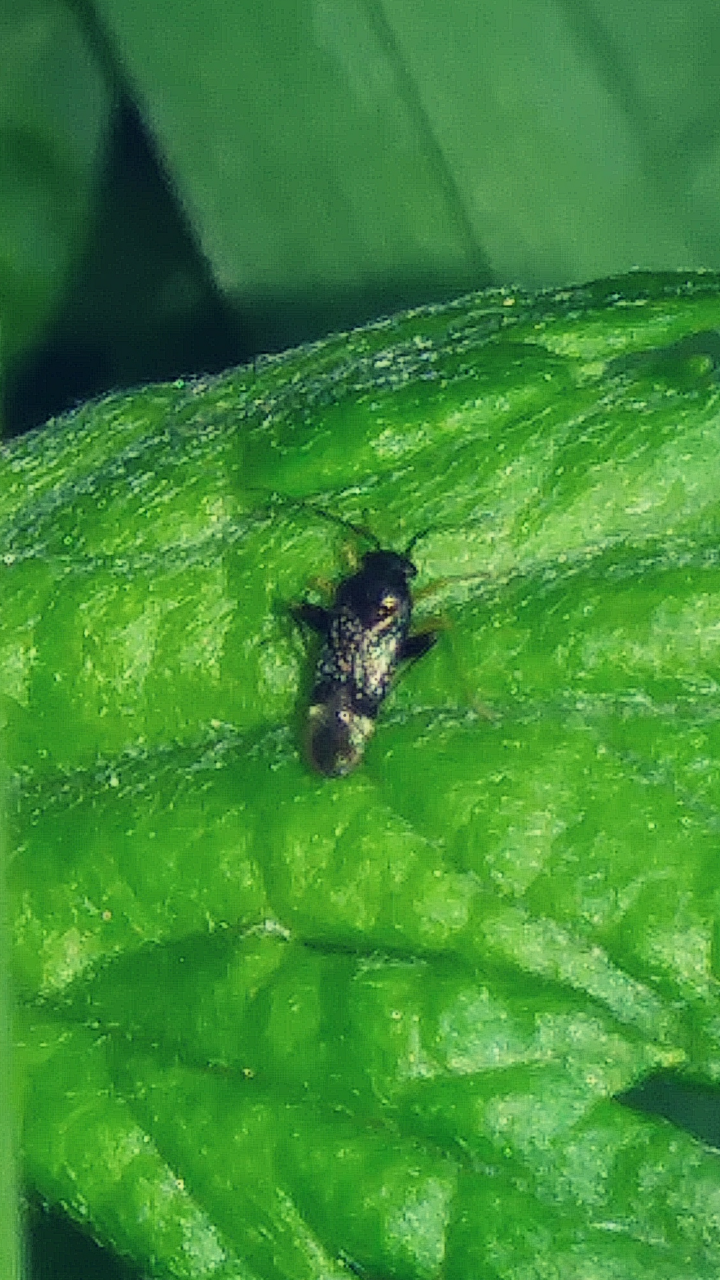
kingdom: Animalia
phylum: Arthropoda
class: Insecta
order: Hemiptera
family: Miridae
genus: Microtechnites
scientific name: Microtechnites bractatus
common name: Garden fleahopper
